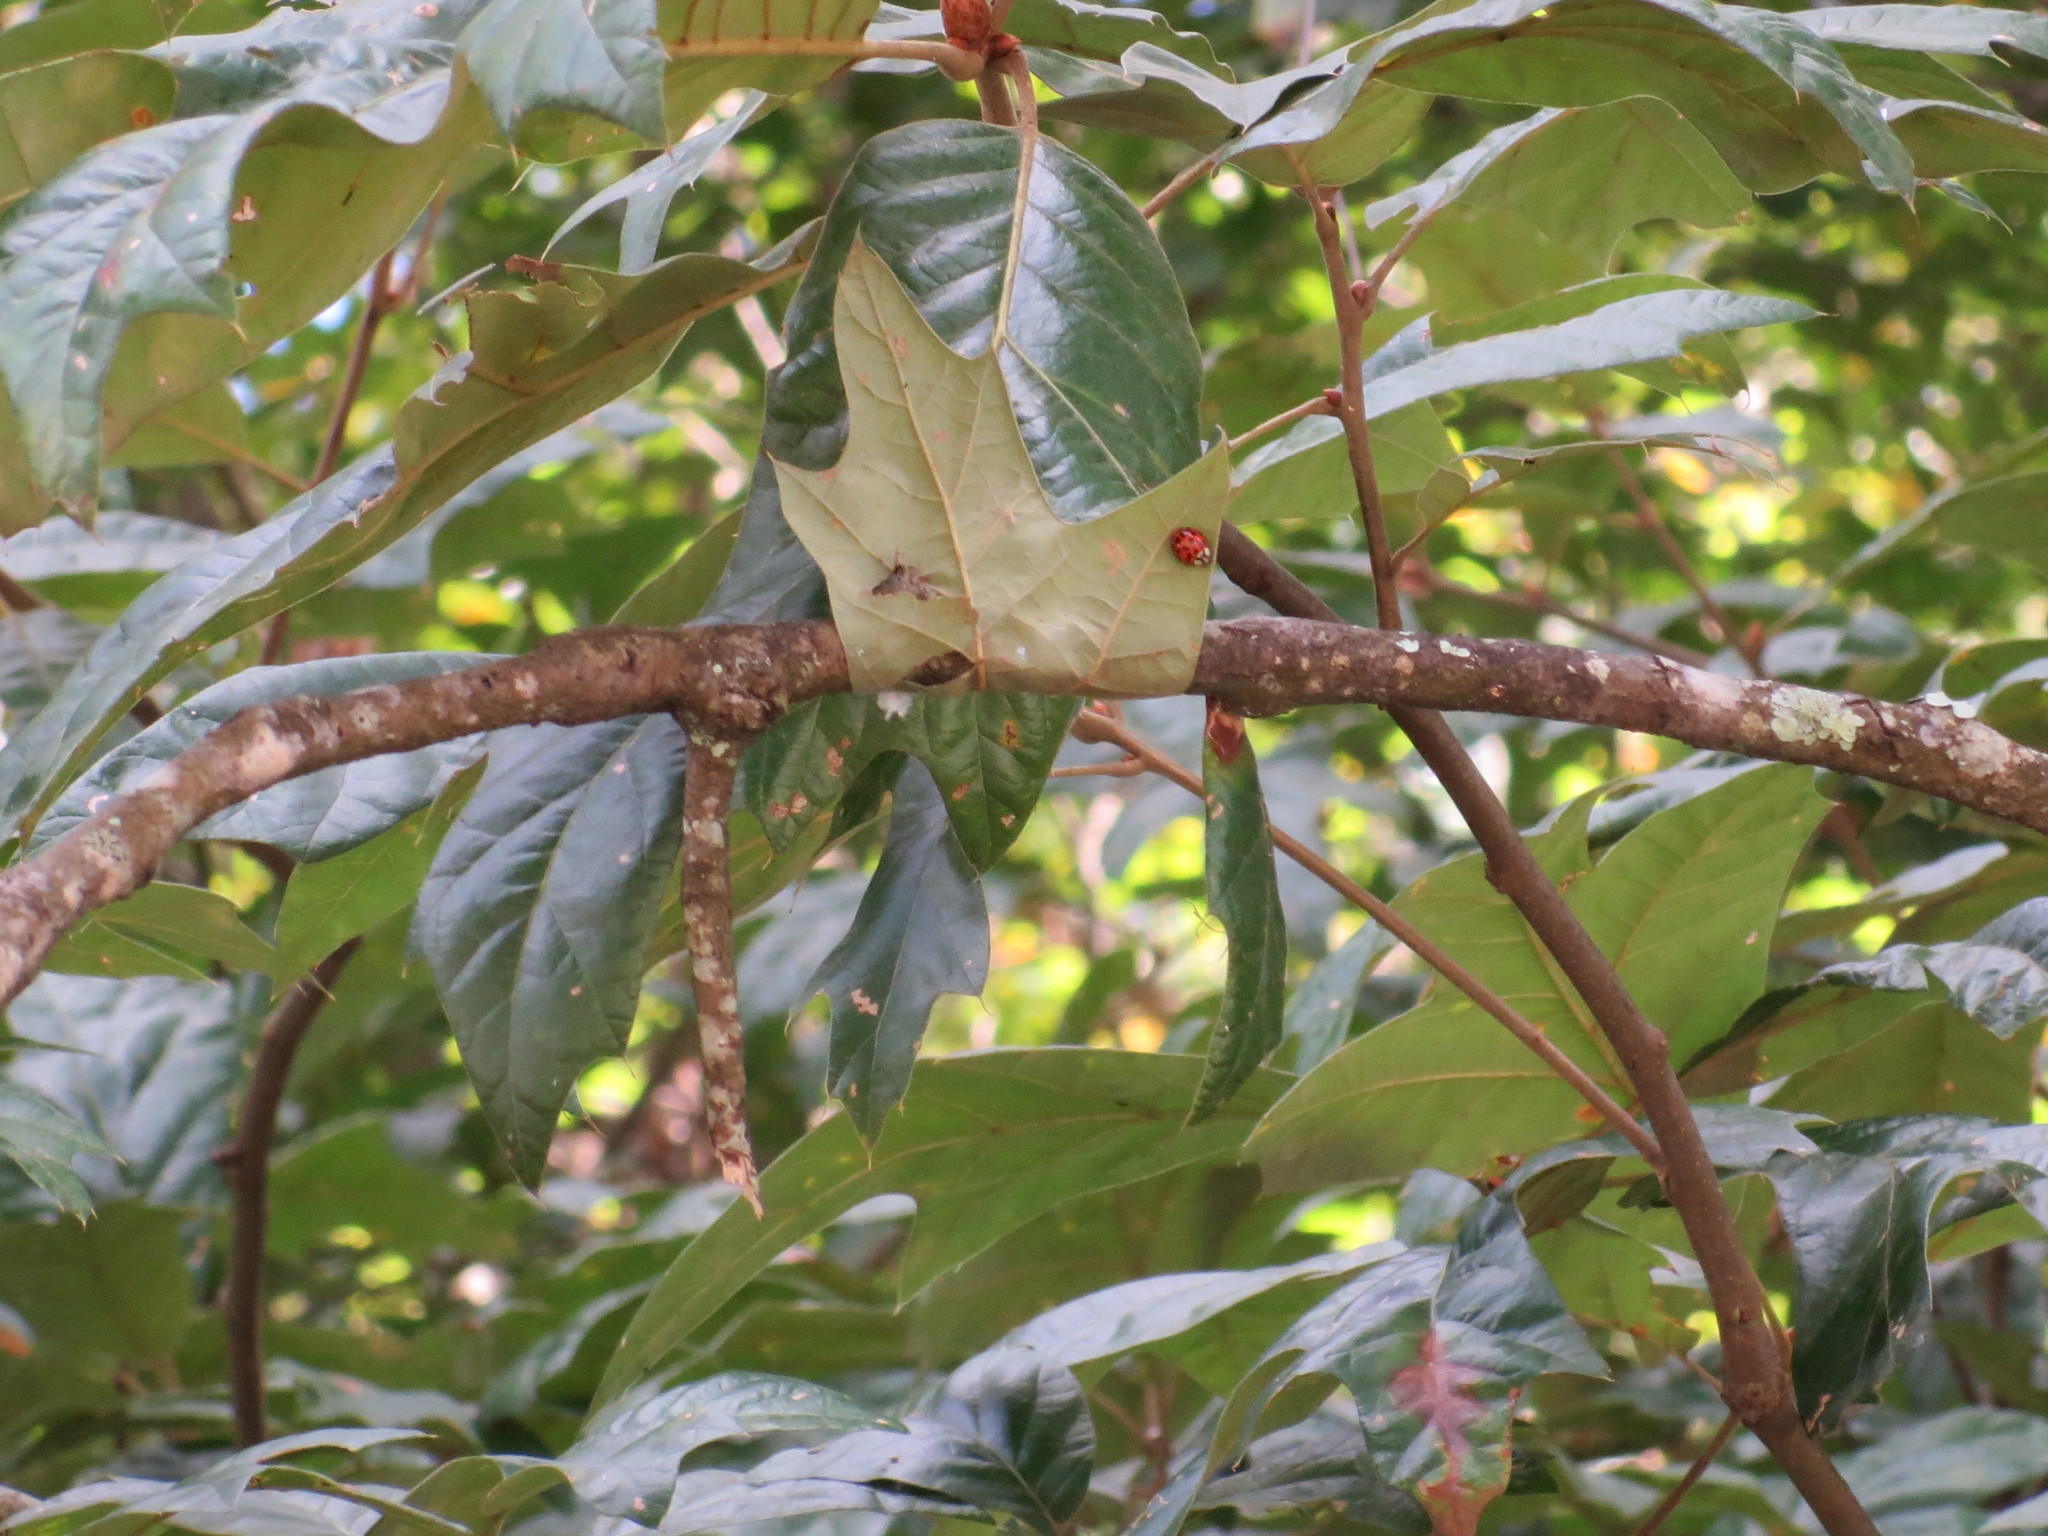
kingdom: Animalia
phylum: Arthropoda
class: Insecta
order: Coleoptera
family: Coccinellidae
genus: Harmonia
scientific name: Harmonia axyridis
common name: Harlequin ladybird
